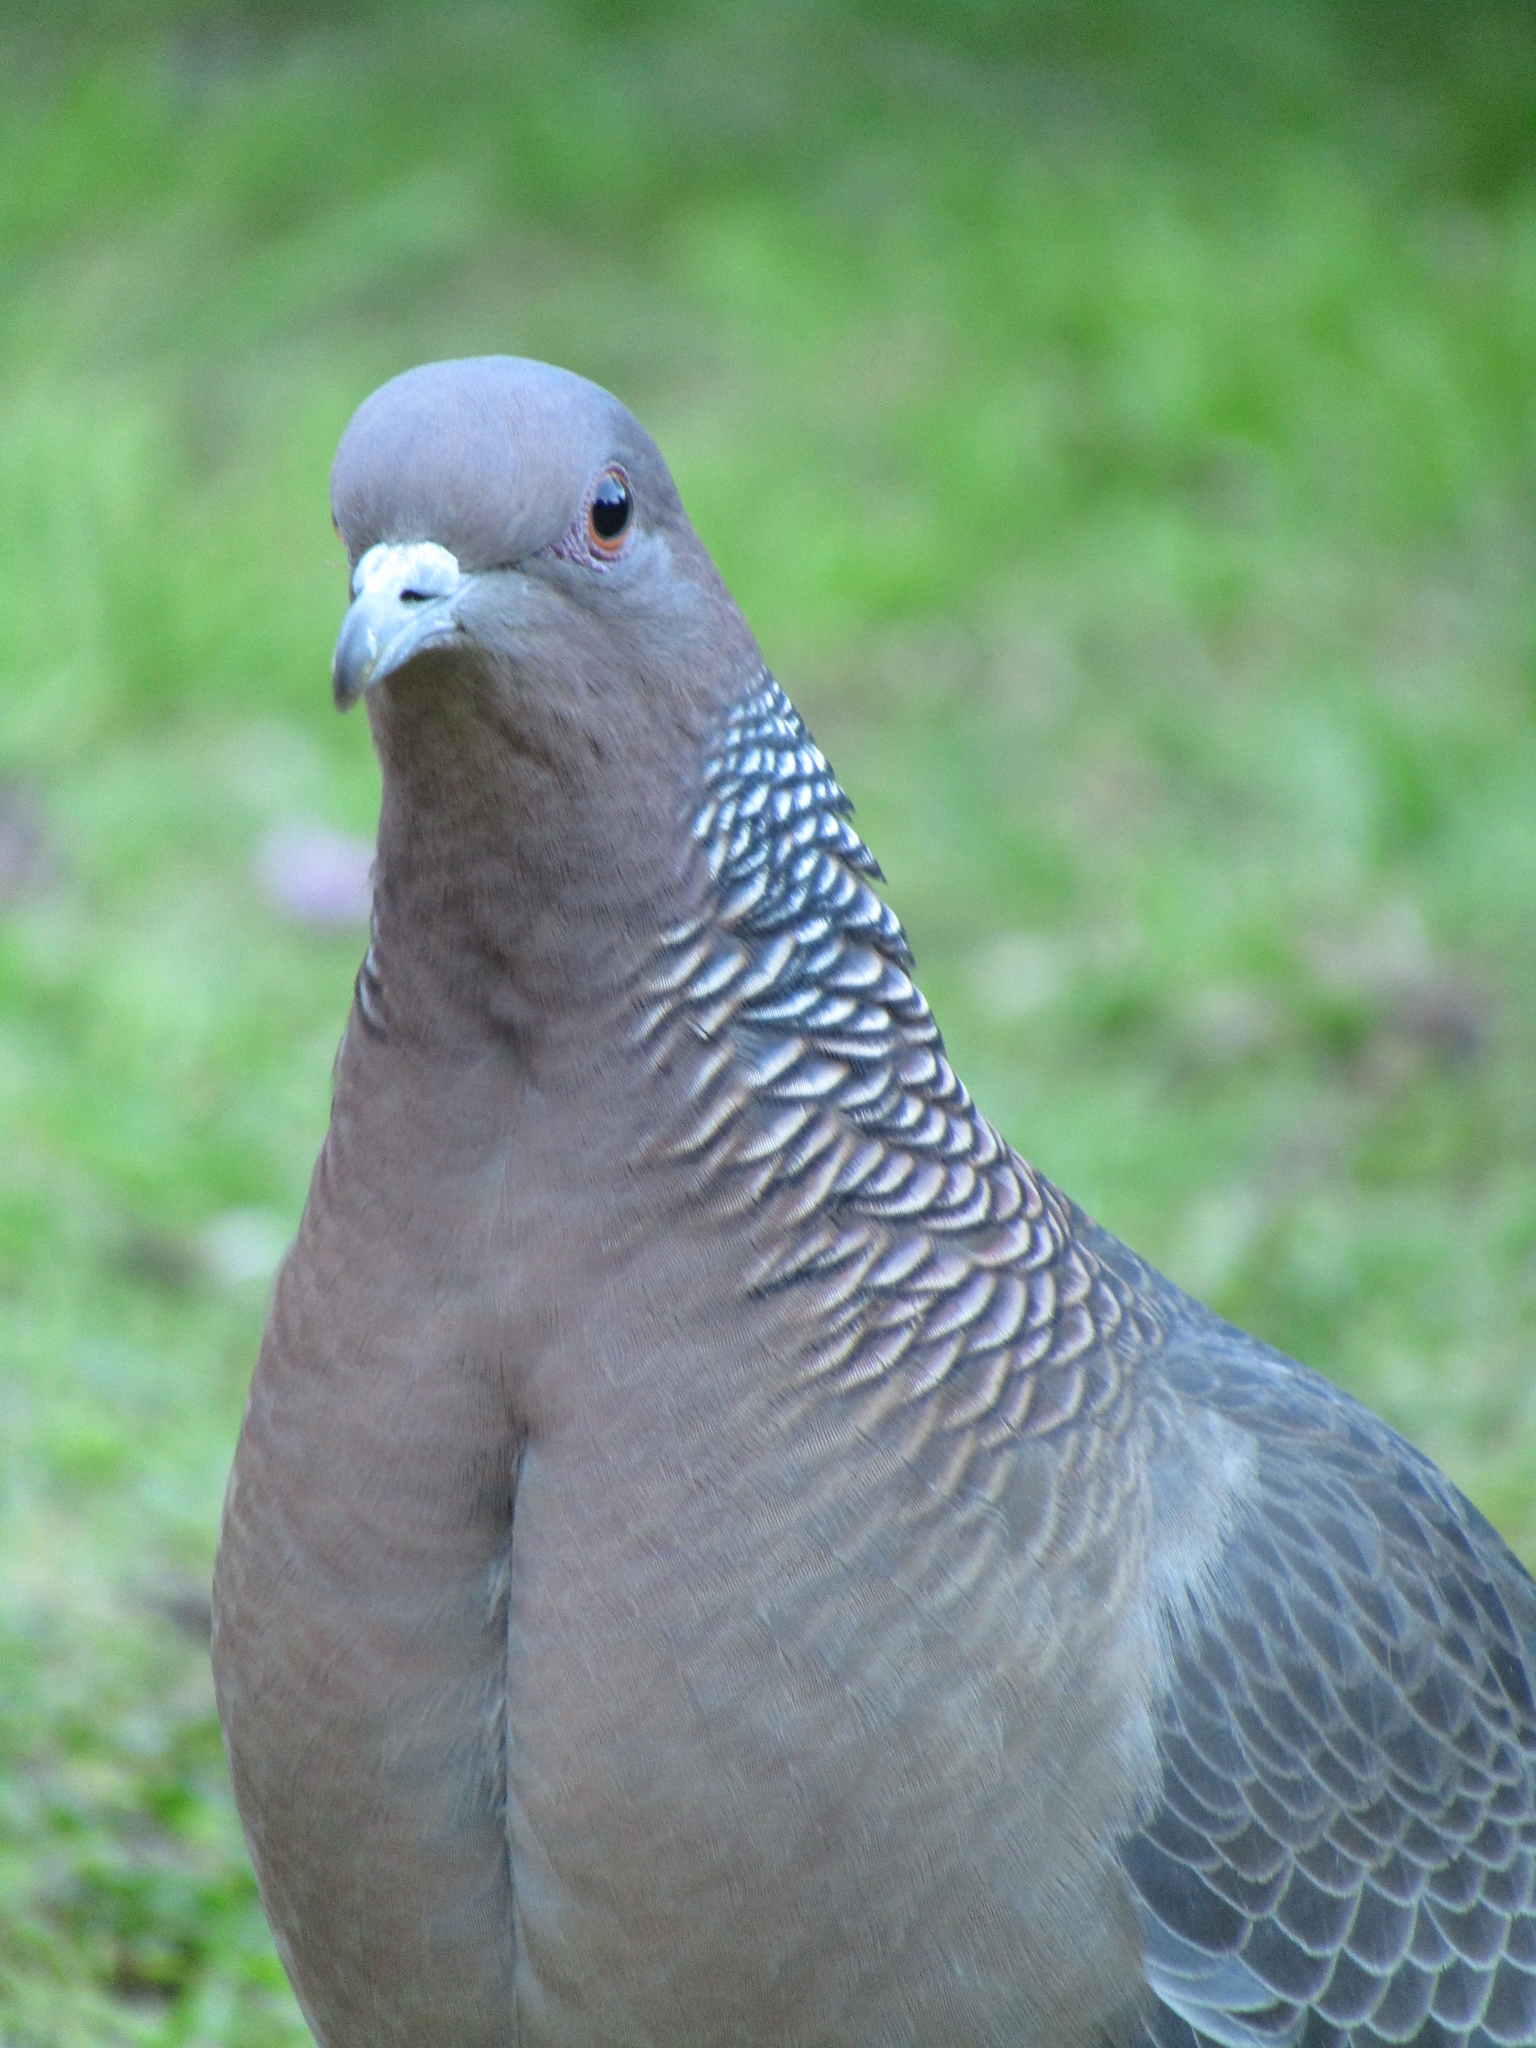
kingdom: Animalia
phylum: Chordata
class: Aves
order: Columbiformes
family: Columbidae
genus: Patagioenas
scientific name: Patagioenas picazuro
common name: Picazuro pigeon
